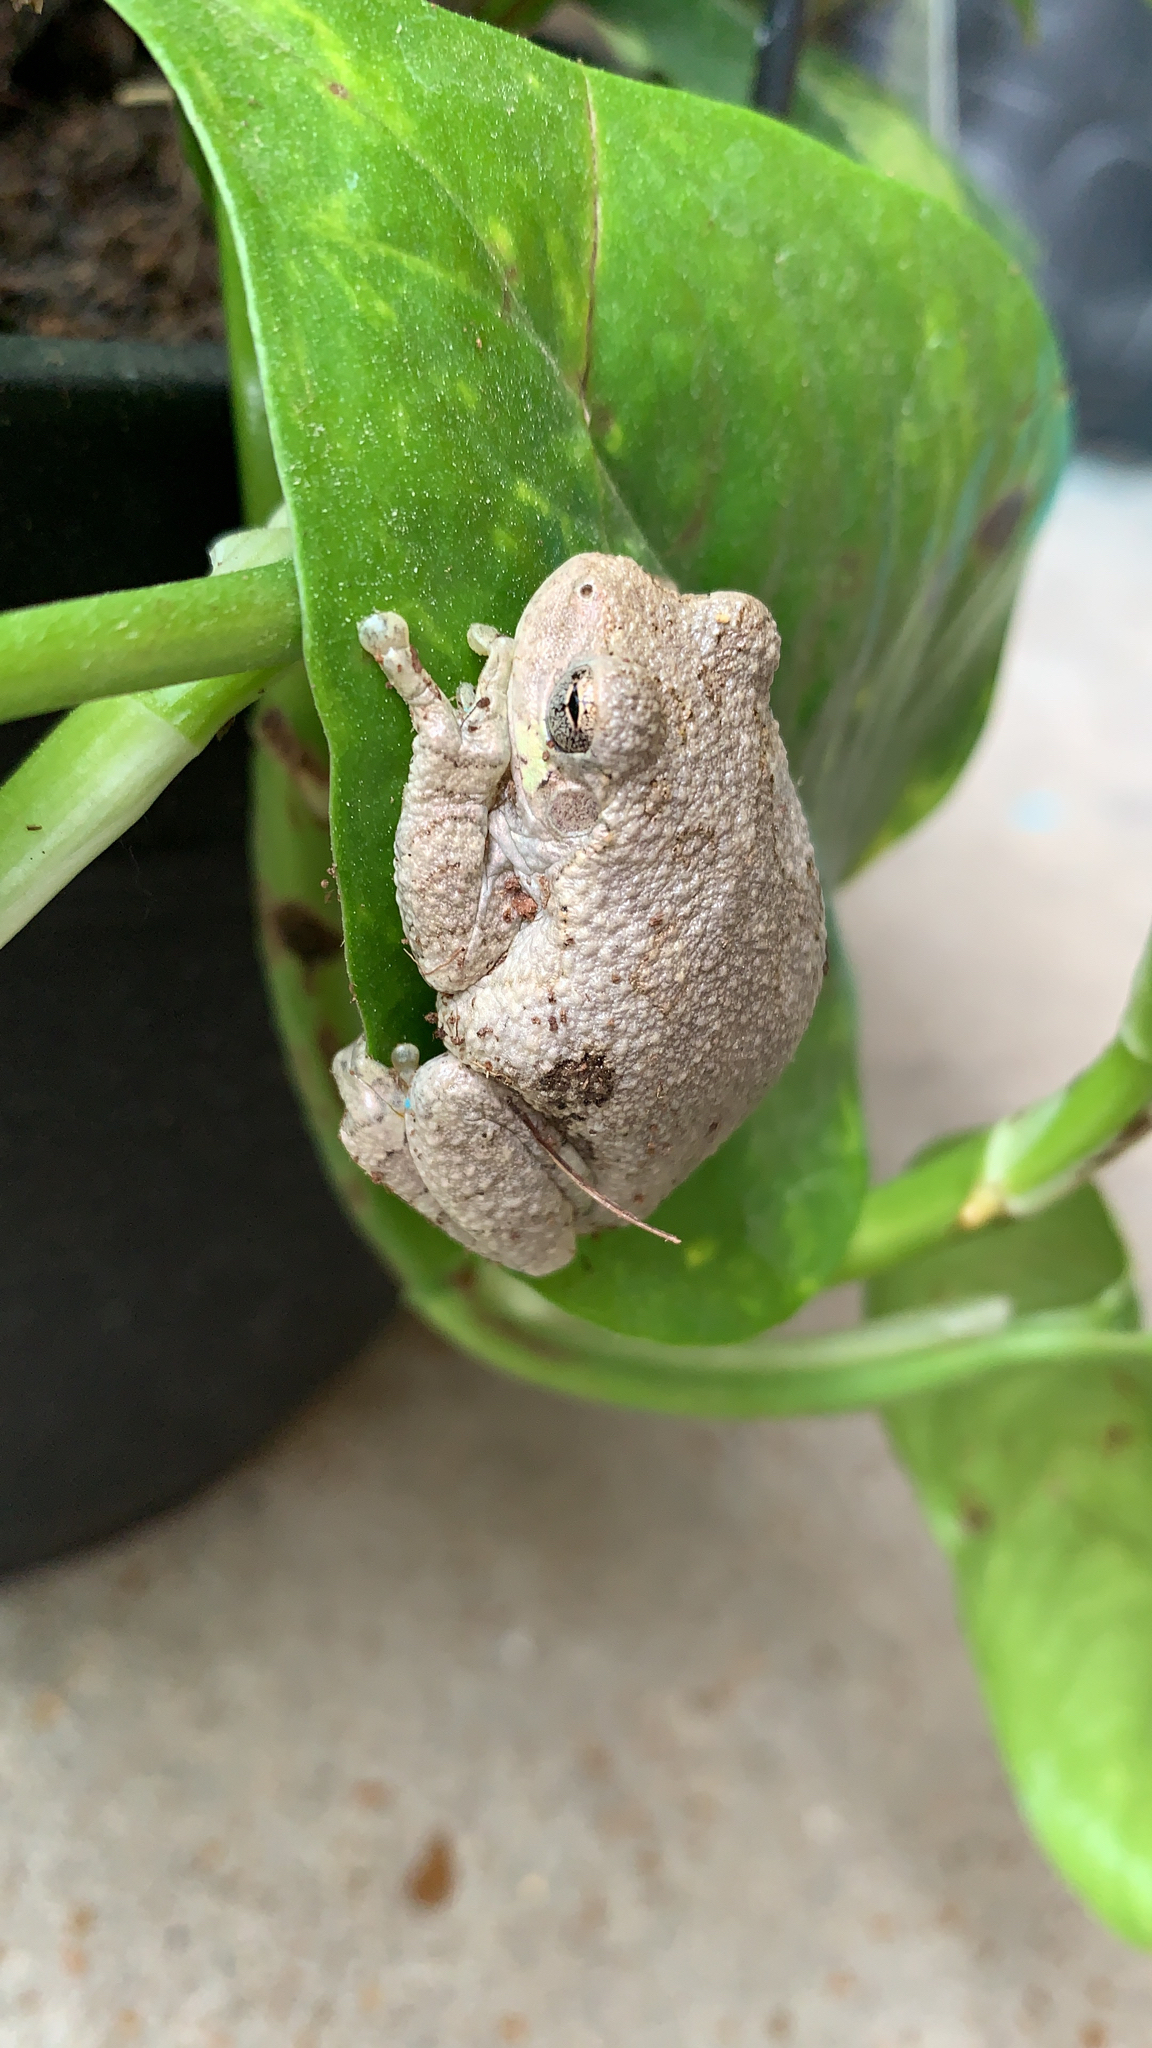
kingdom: Animalia
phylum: Chordata
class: Amphibia
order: Anura
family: Hylidae
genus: Hyla
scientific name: Hyla
